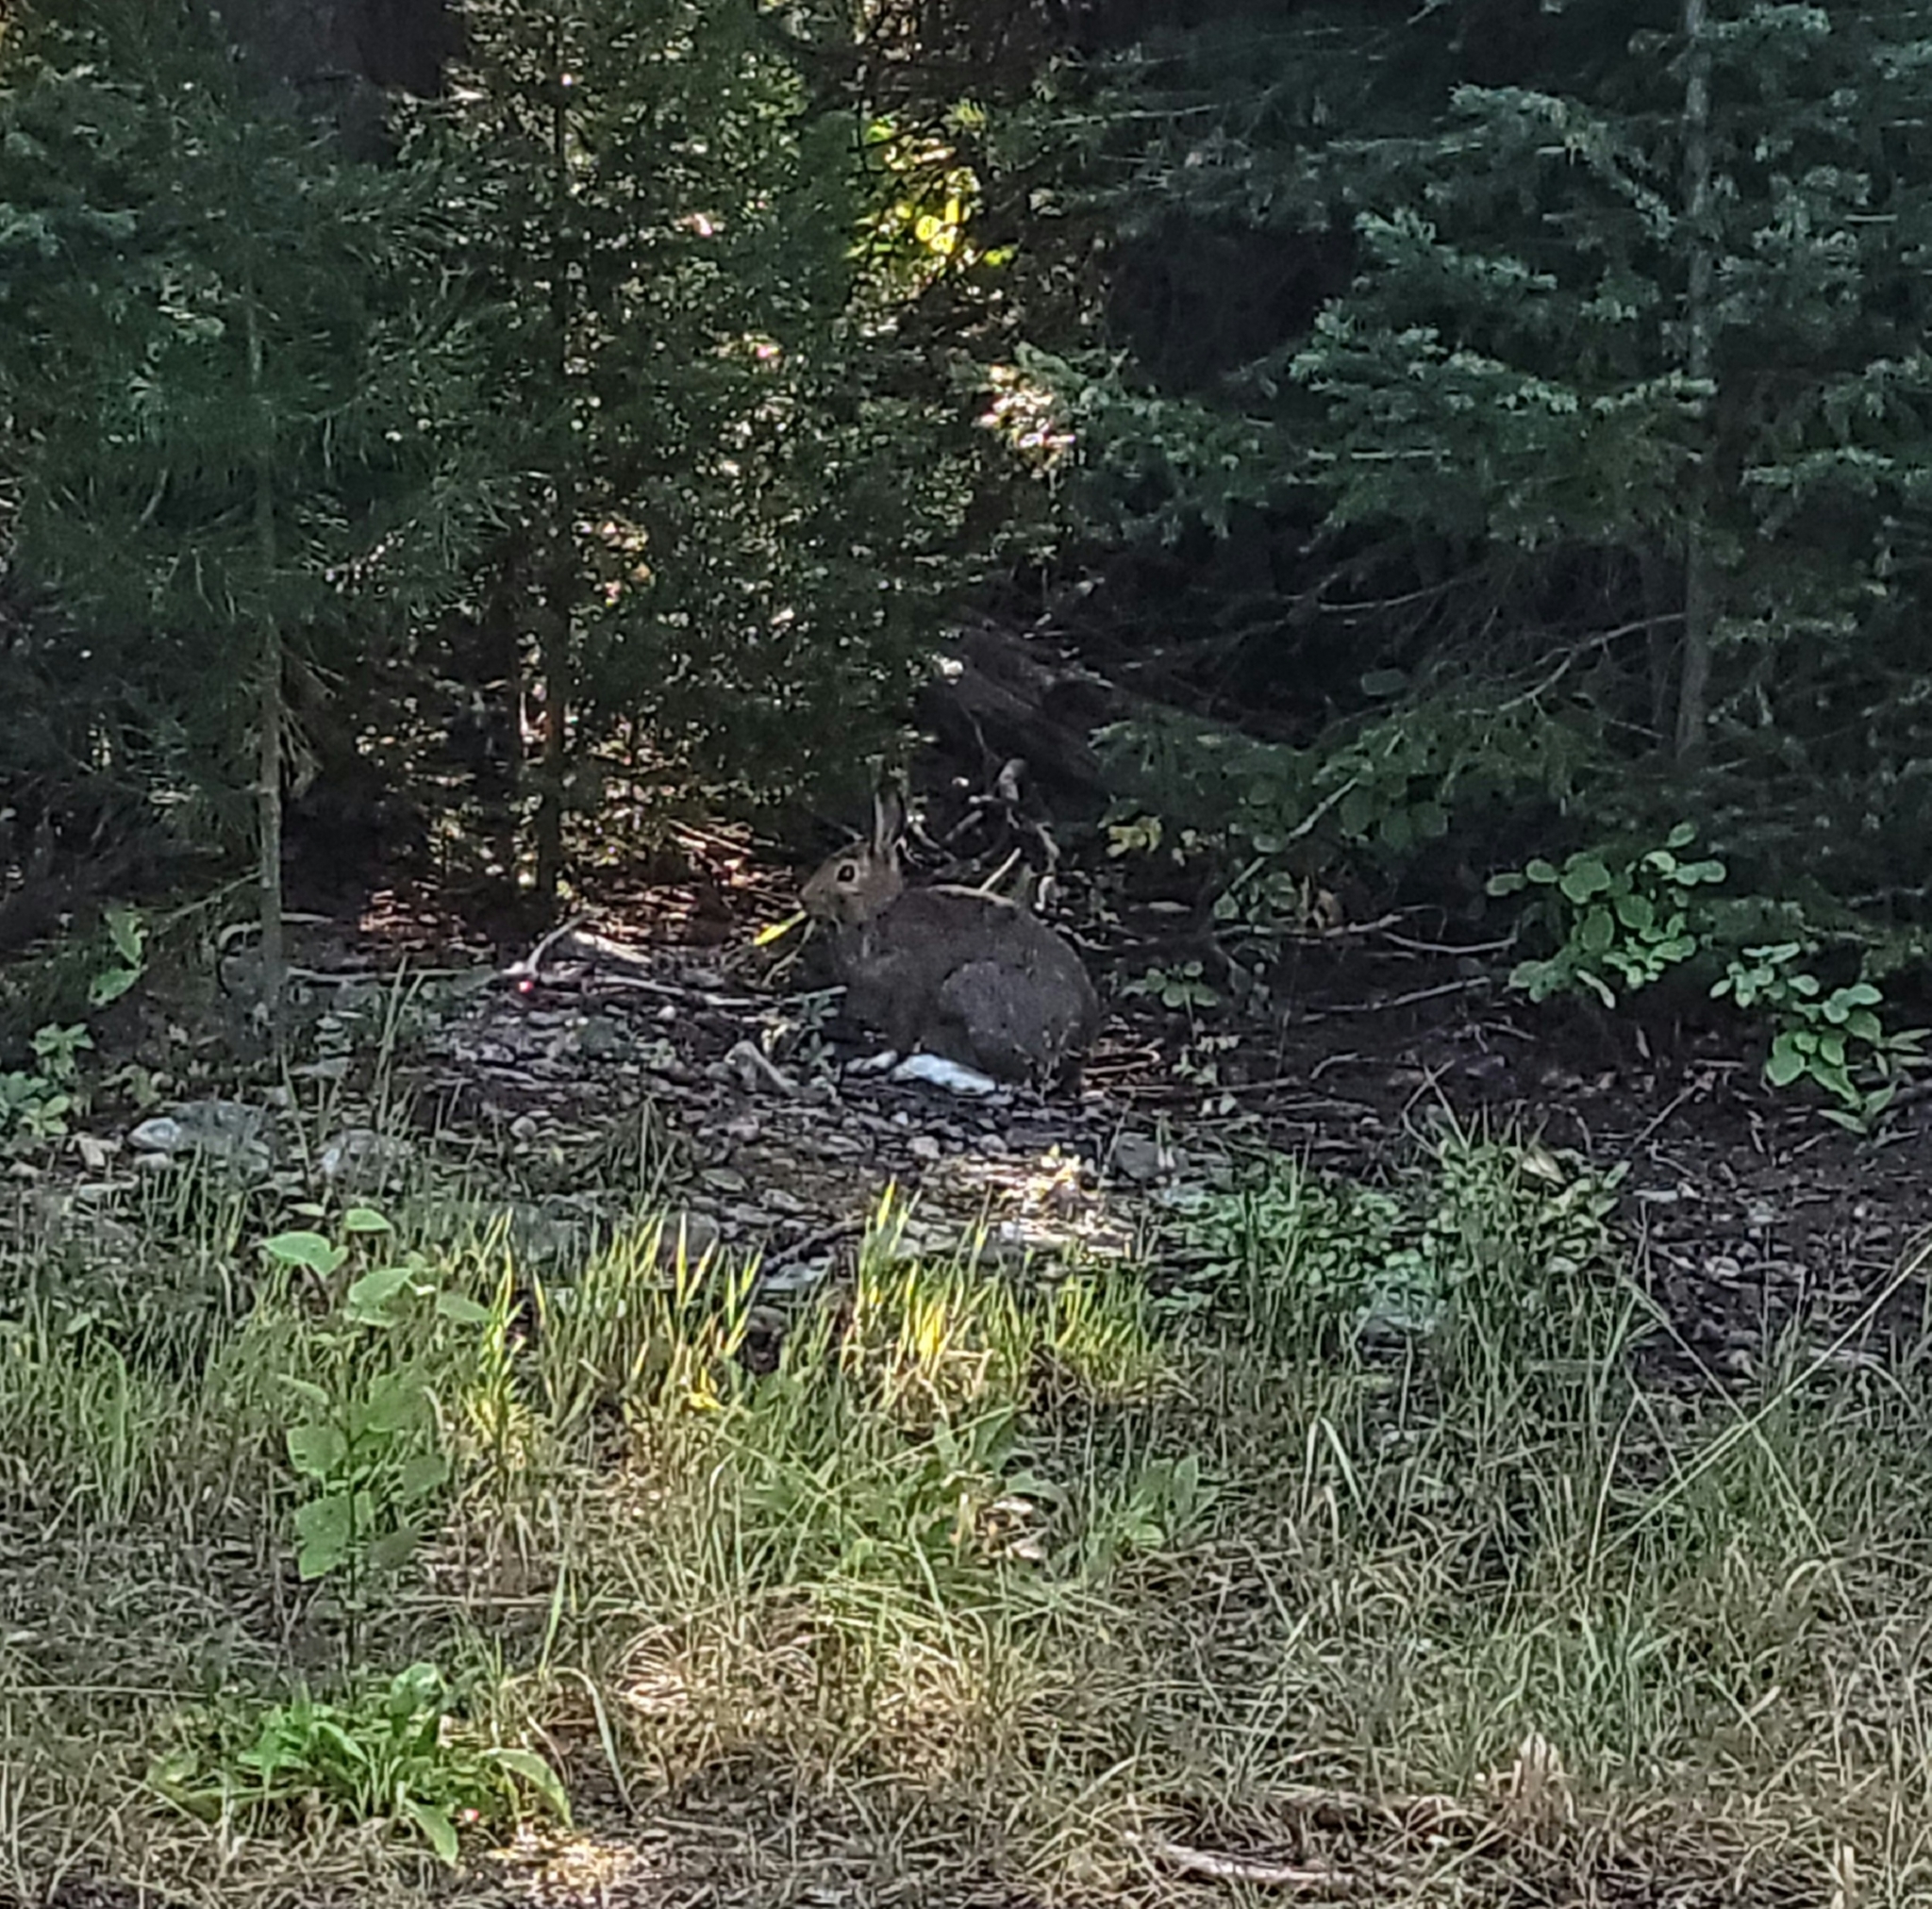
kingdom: Animalia
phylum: Chordata
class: Mammalia
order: Lagomorpha
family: Leporidae
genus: Lepus
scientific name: Lepus americanus
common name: Snowshoe hare
